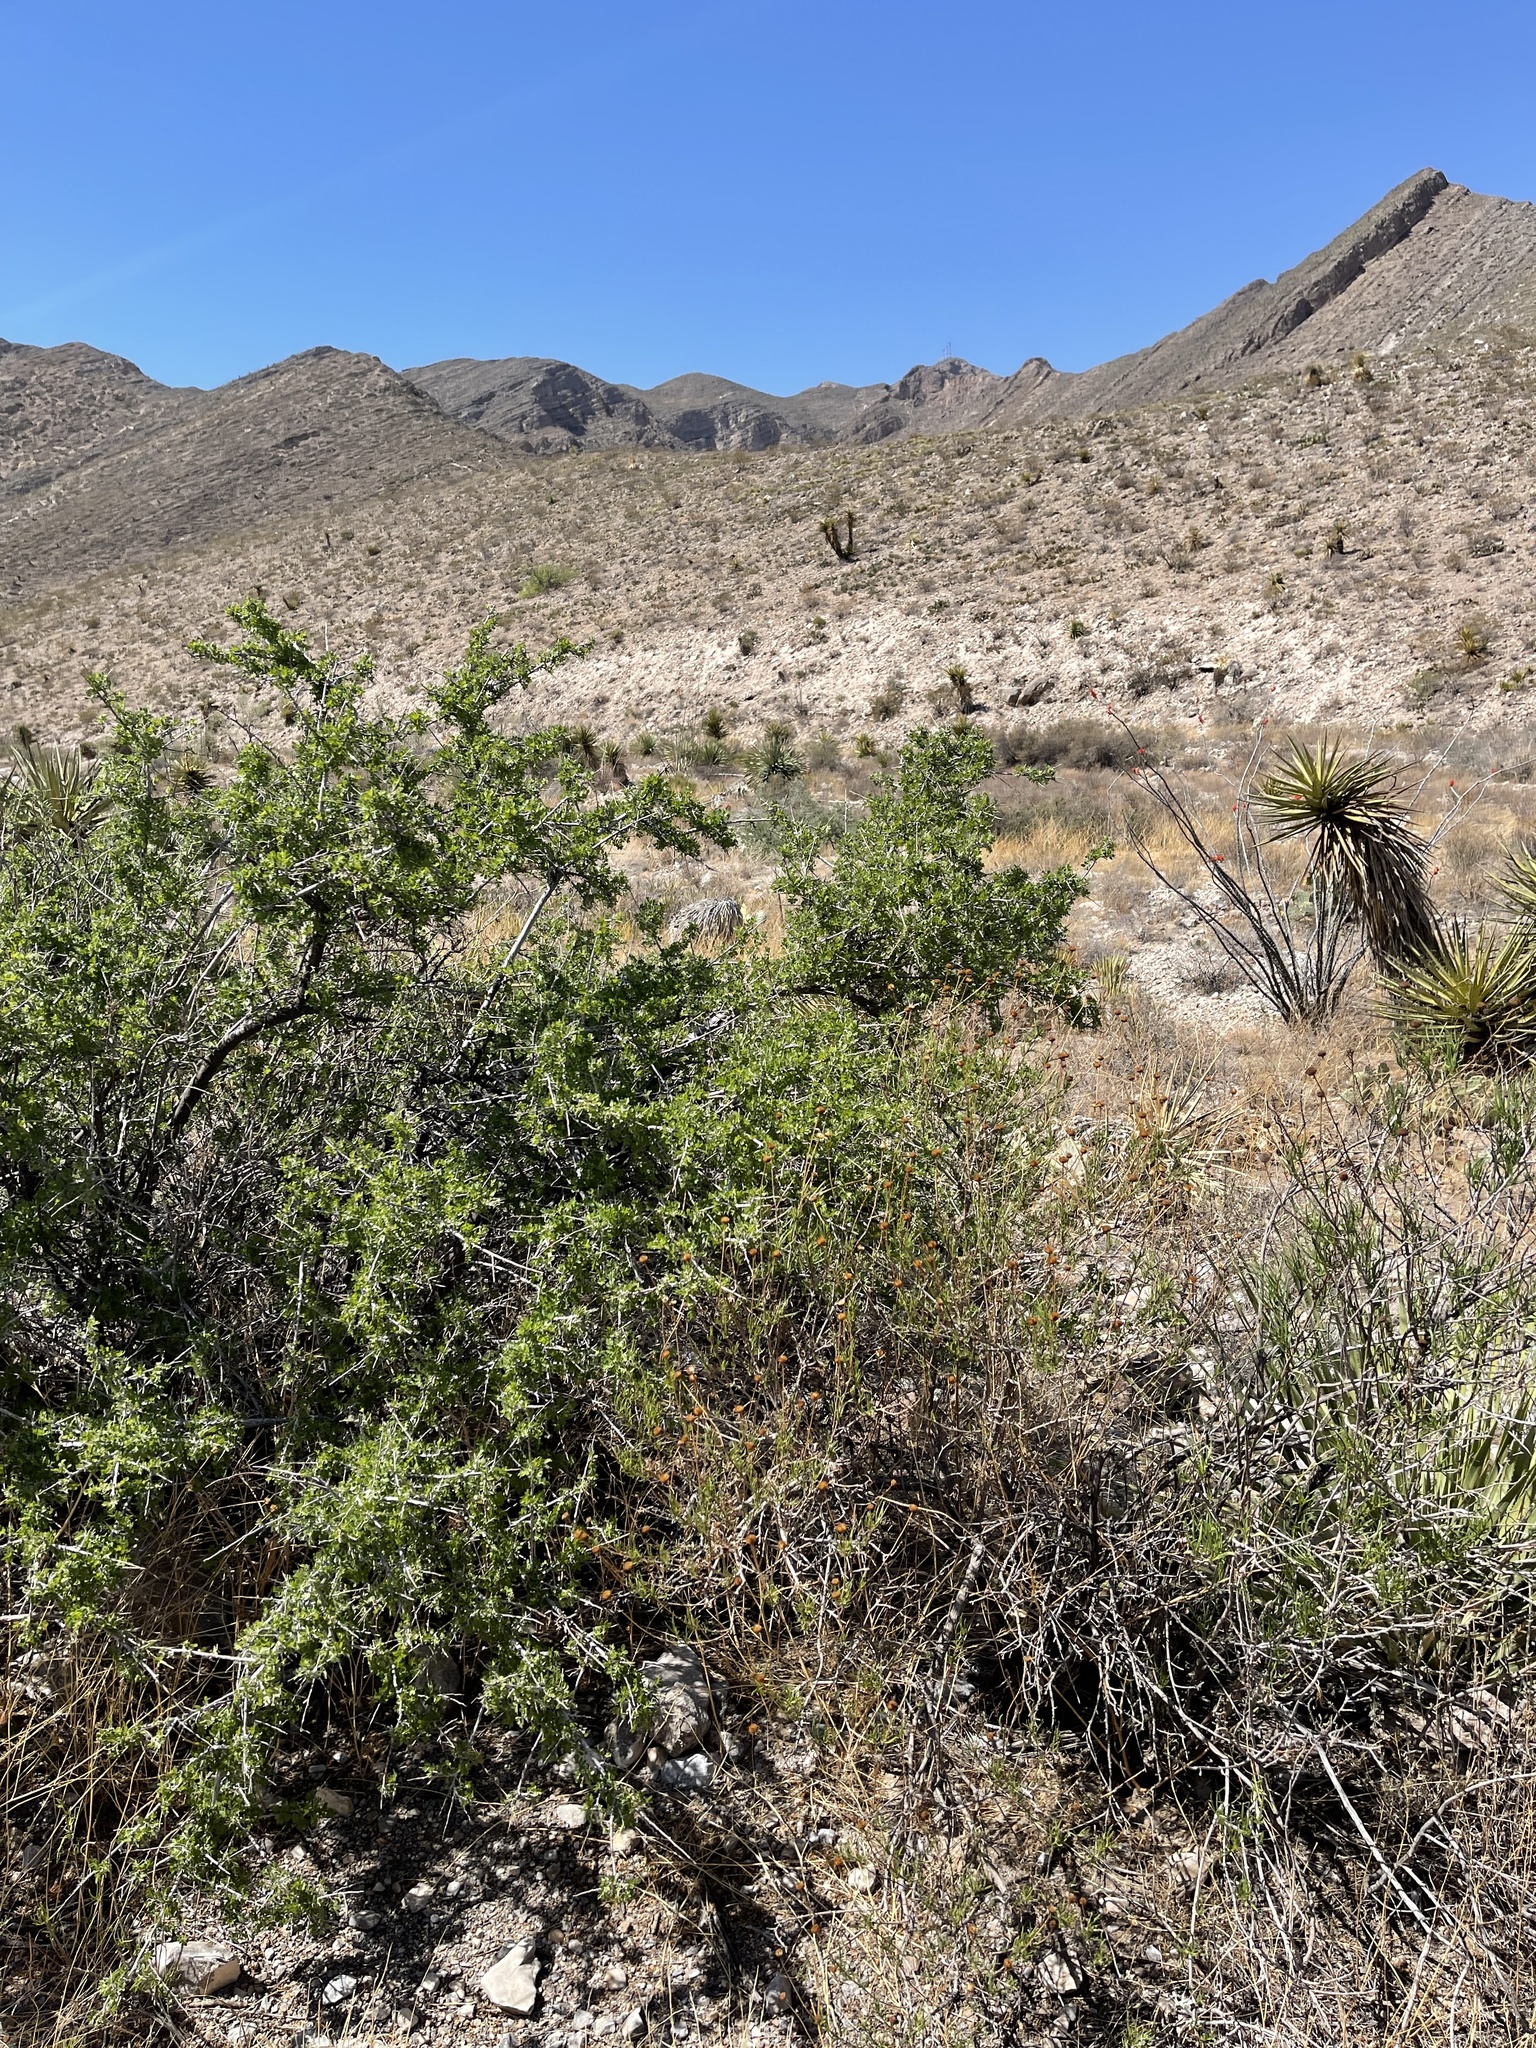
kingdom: Plantae
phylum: Tracheophyta
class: Magnoliopsida
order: Sapindales
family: Anacardiaceae
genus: Rhus
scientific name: Rhus microphylla
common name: Desert sumac
